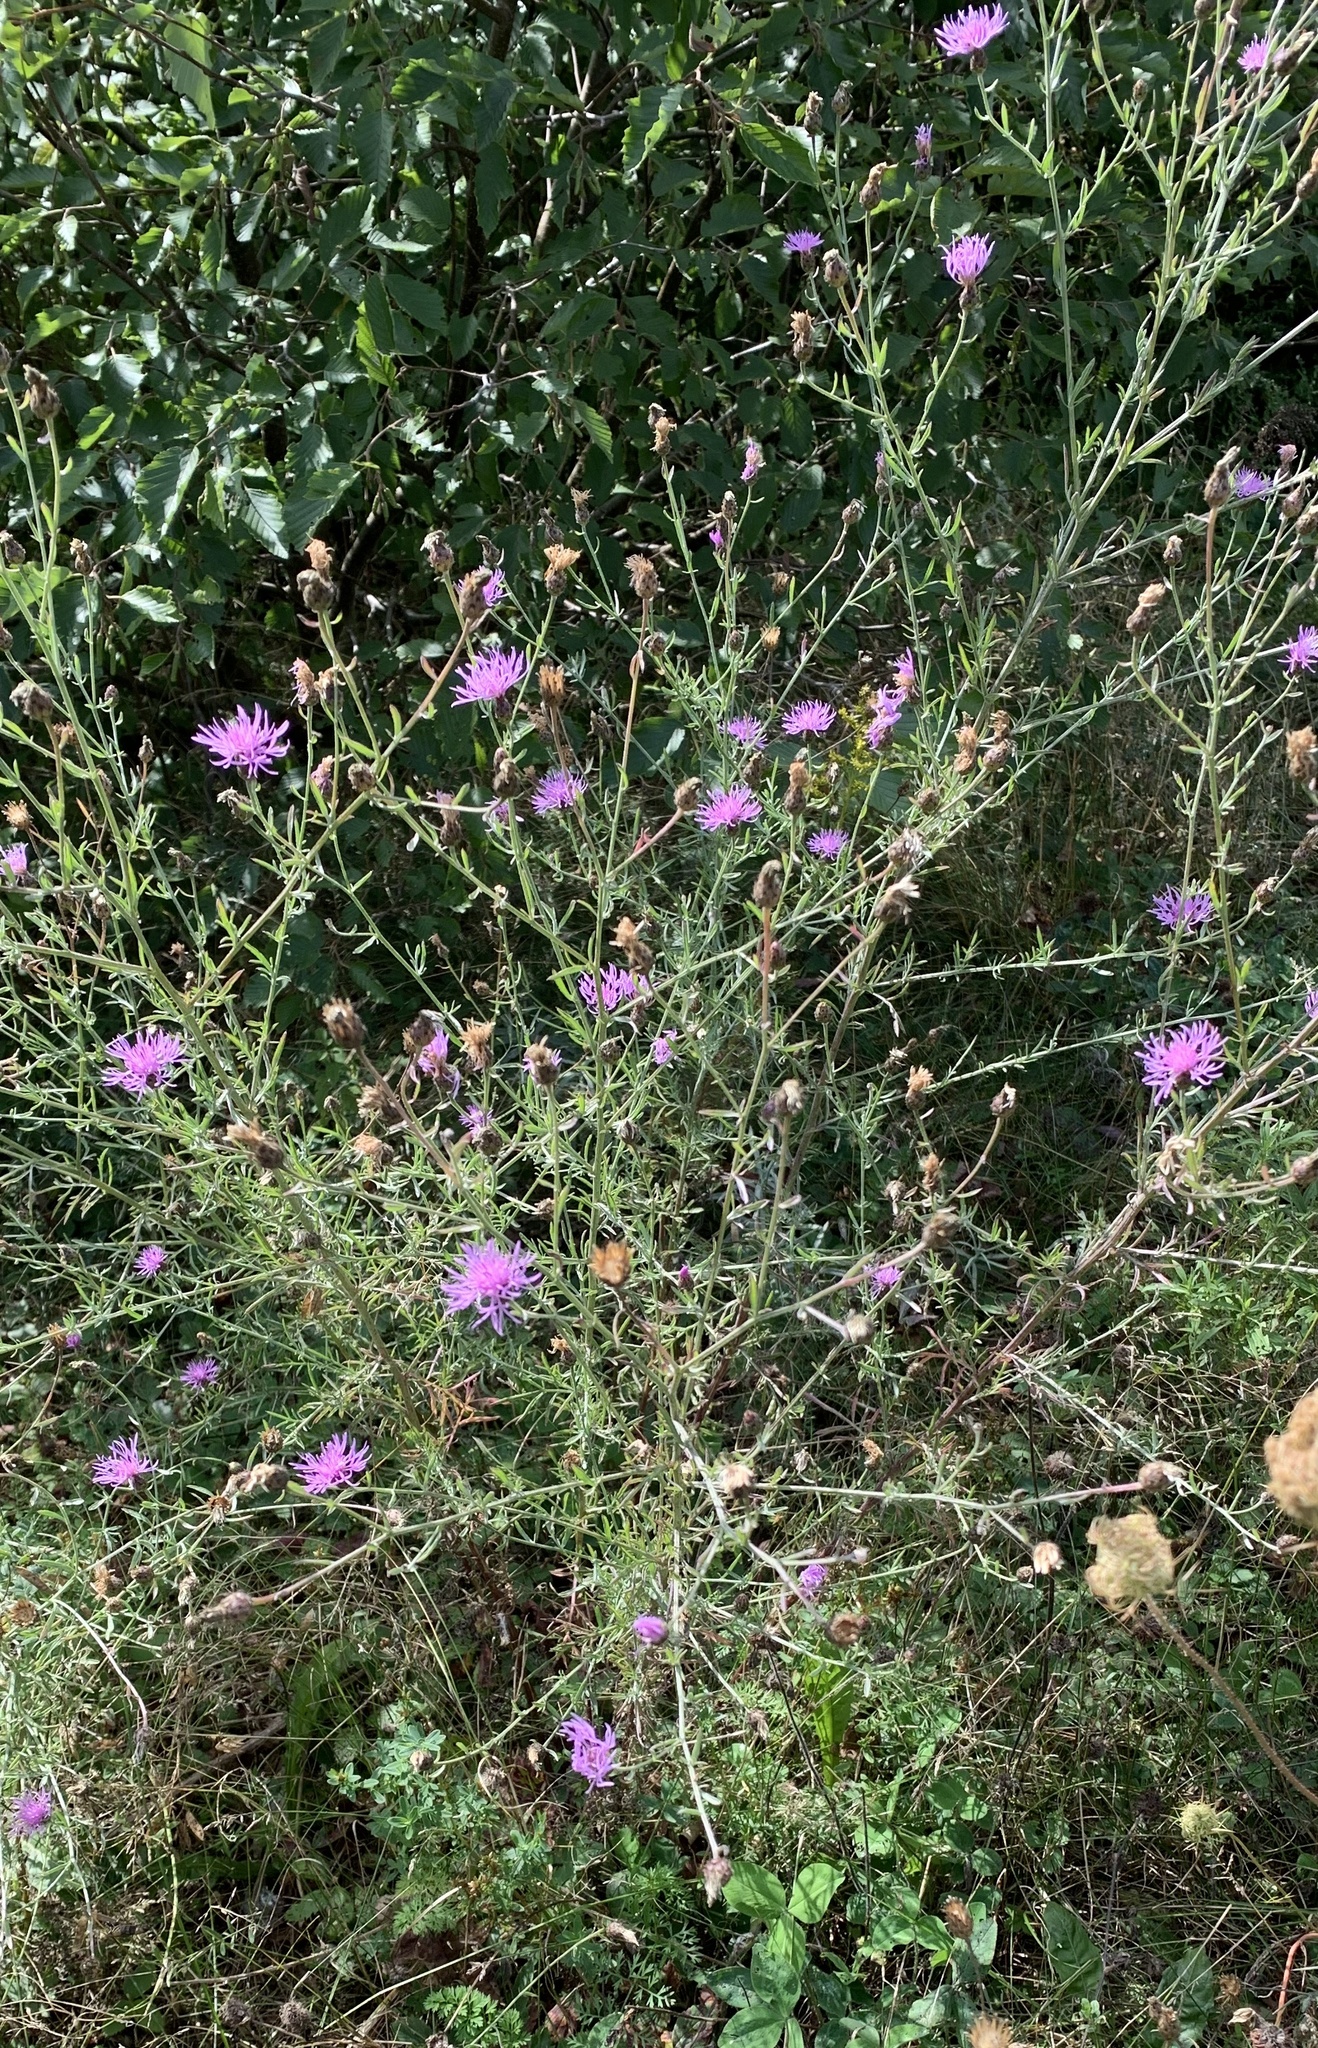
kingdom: Plantae
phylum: Tracheophyta
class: Magnoliopsida
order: Asterales
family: Asteraceae
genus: Centaurea
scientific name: Centaurea stoebe
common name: Spotted knapweed
